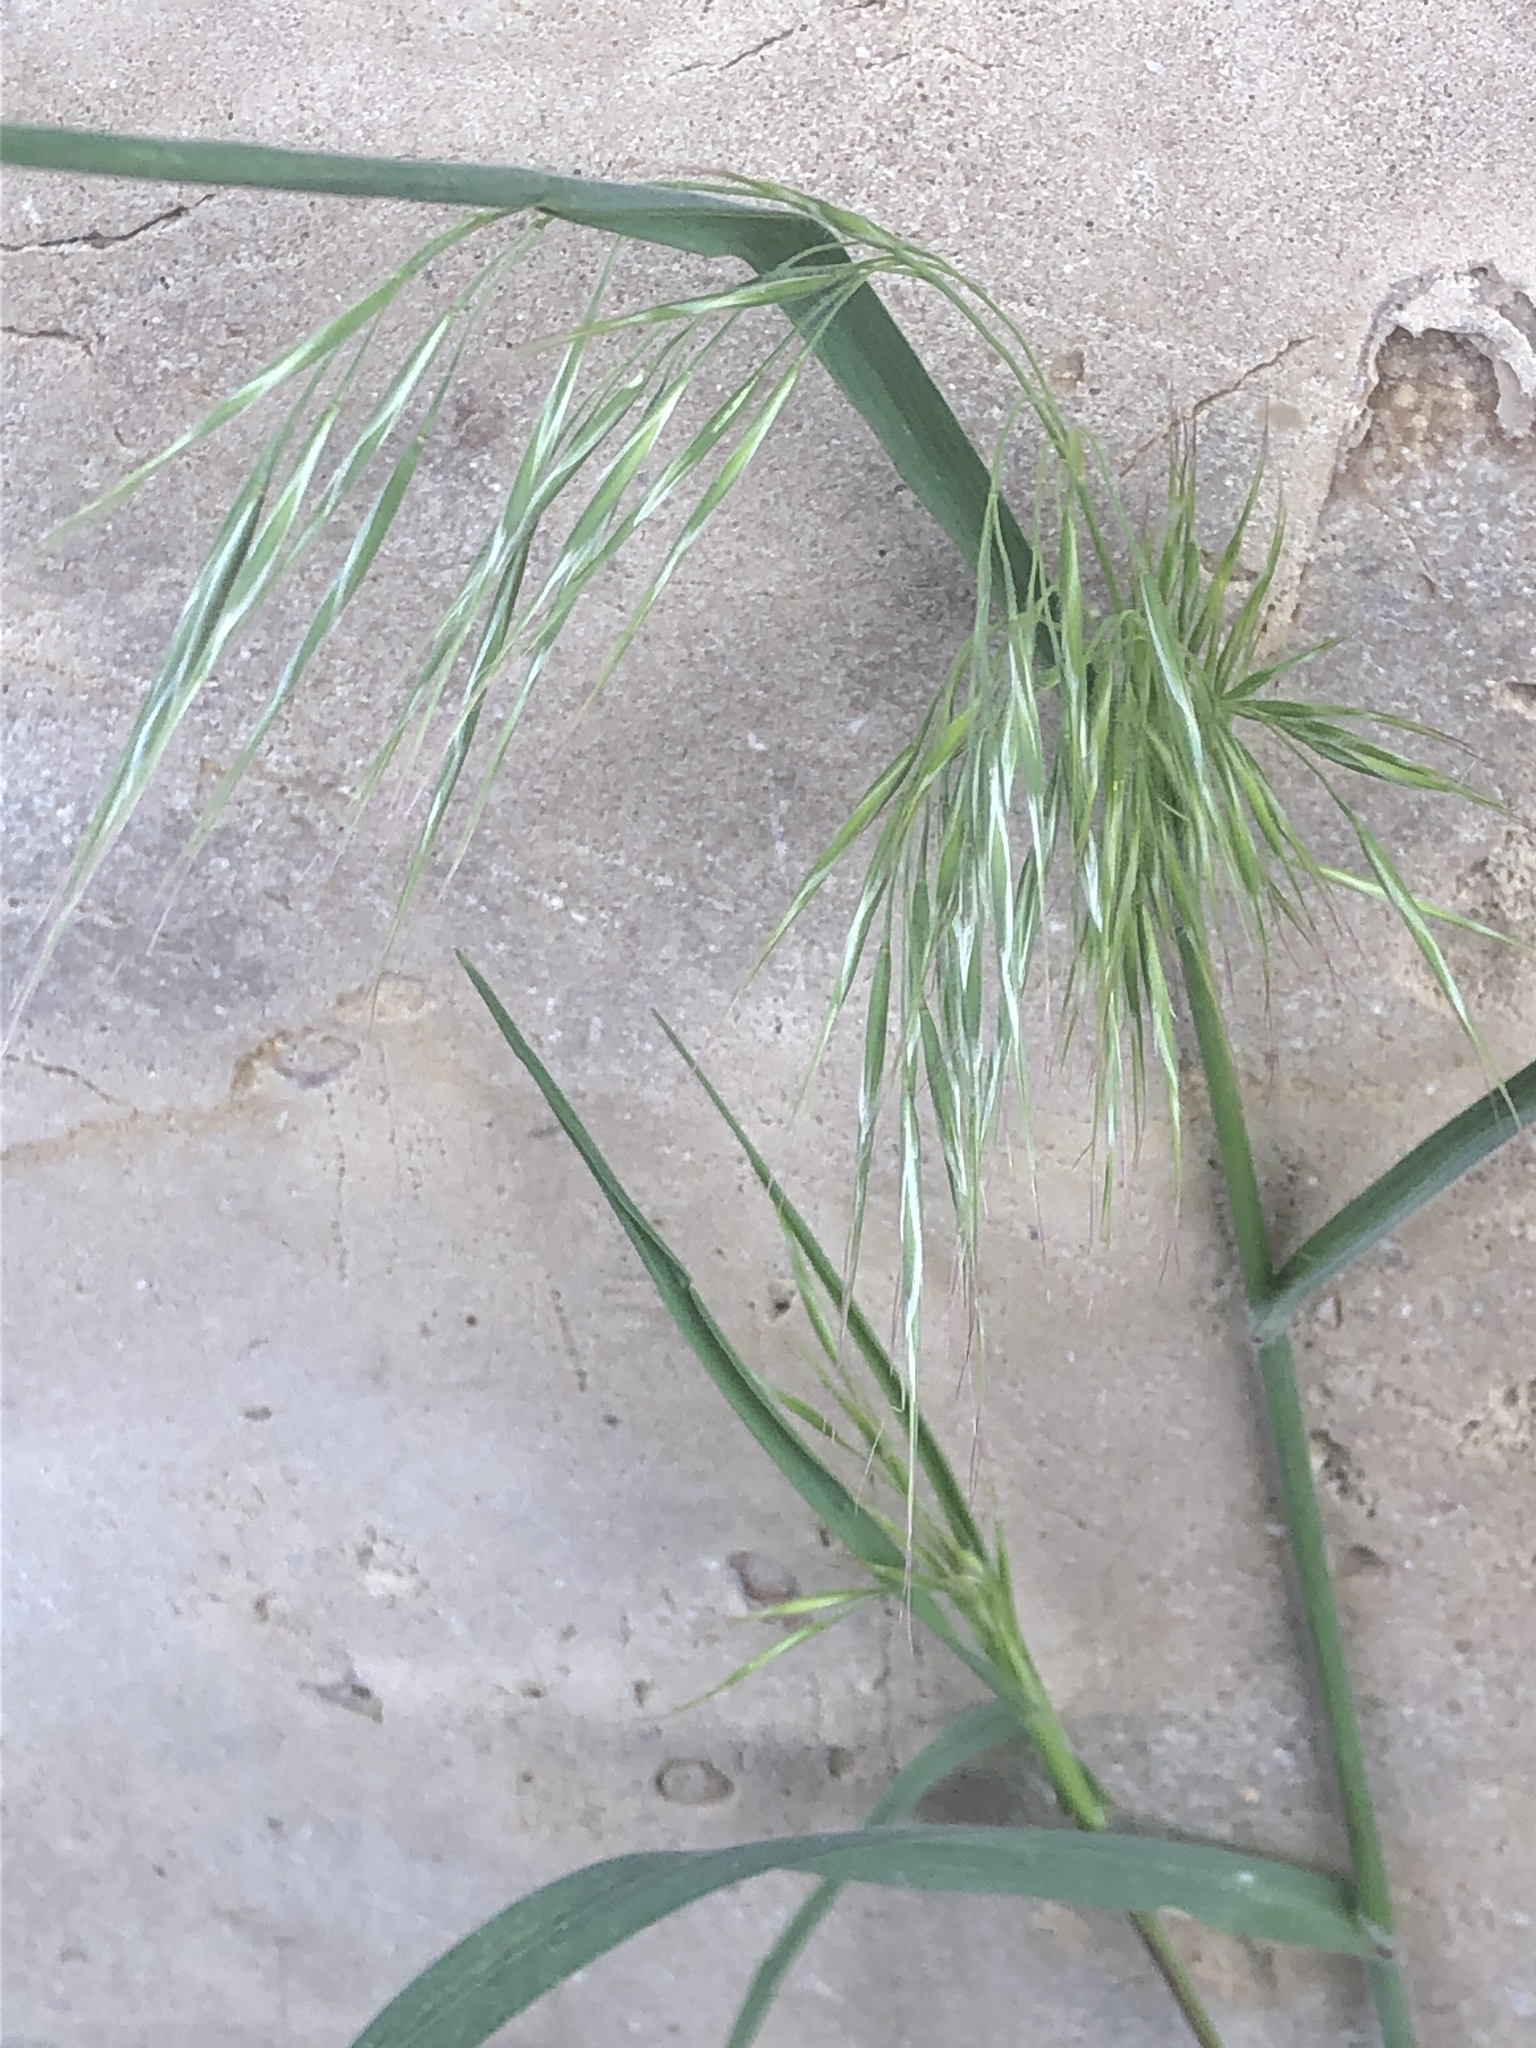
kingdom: Plantae
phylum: Tracheophyta
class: Liliopsida
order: Poales
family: Poaceae
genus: Bromus
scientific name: Bromus tectorum
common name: Cheatgrass
